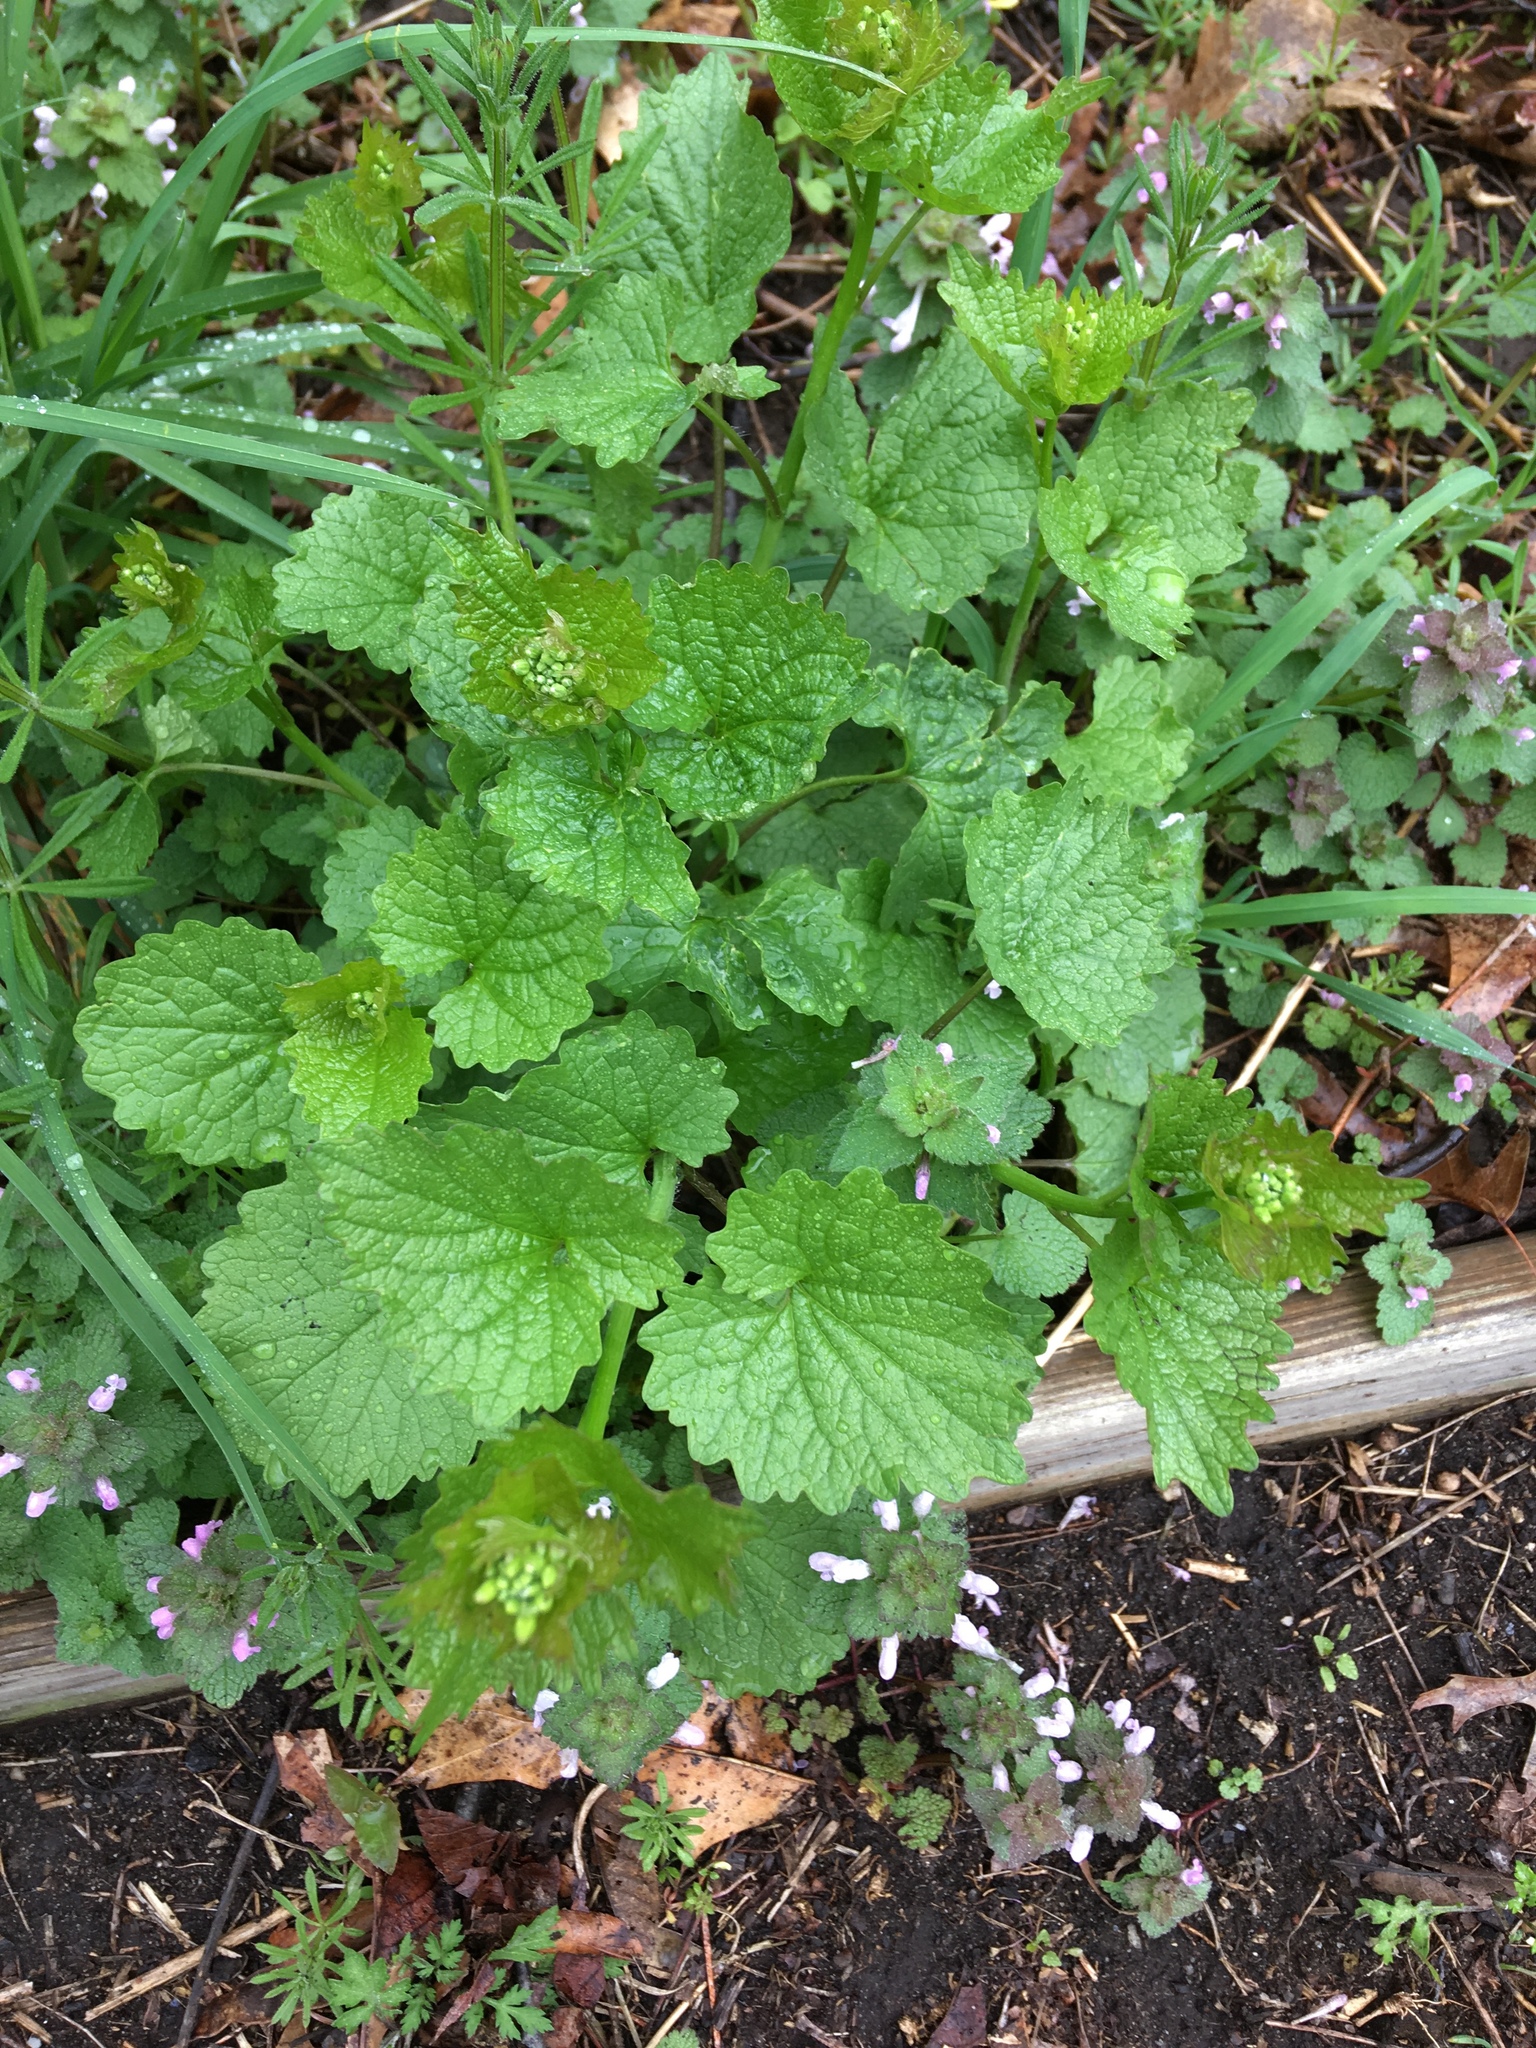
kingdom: Plantae
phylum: Tracheophyta
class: Magnoliopsida
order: Brassicales
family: Brassicaceae
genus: Alliaria
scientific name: Alliaria petiolata
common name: Garlic mustard
